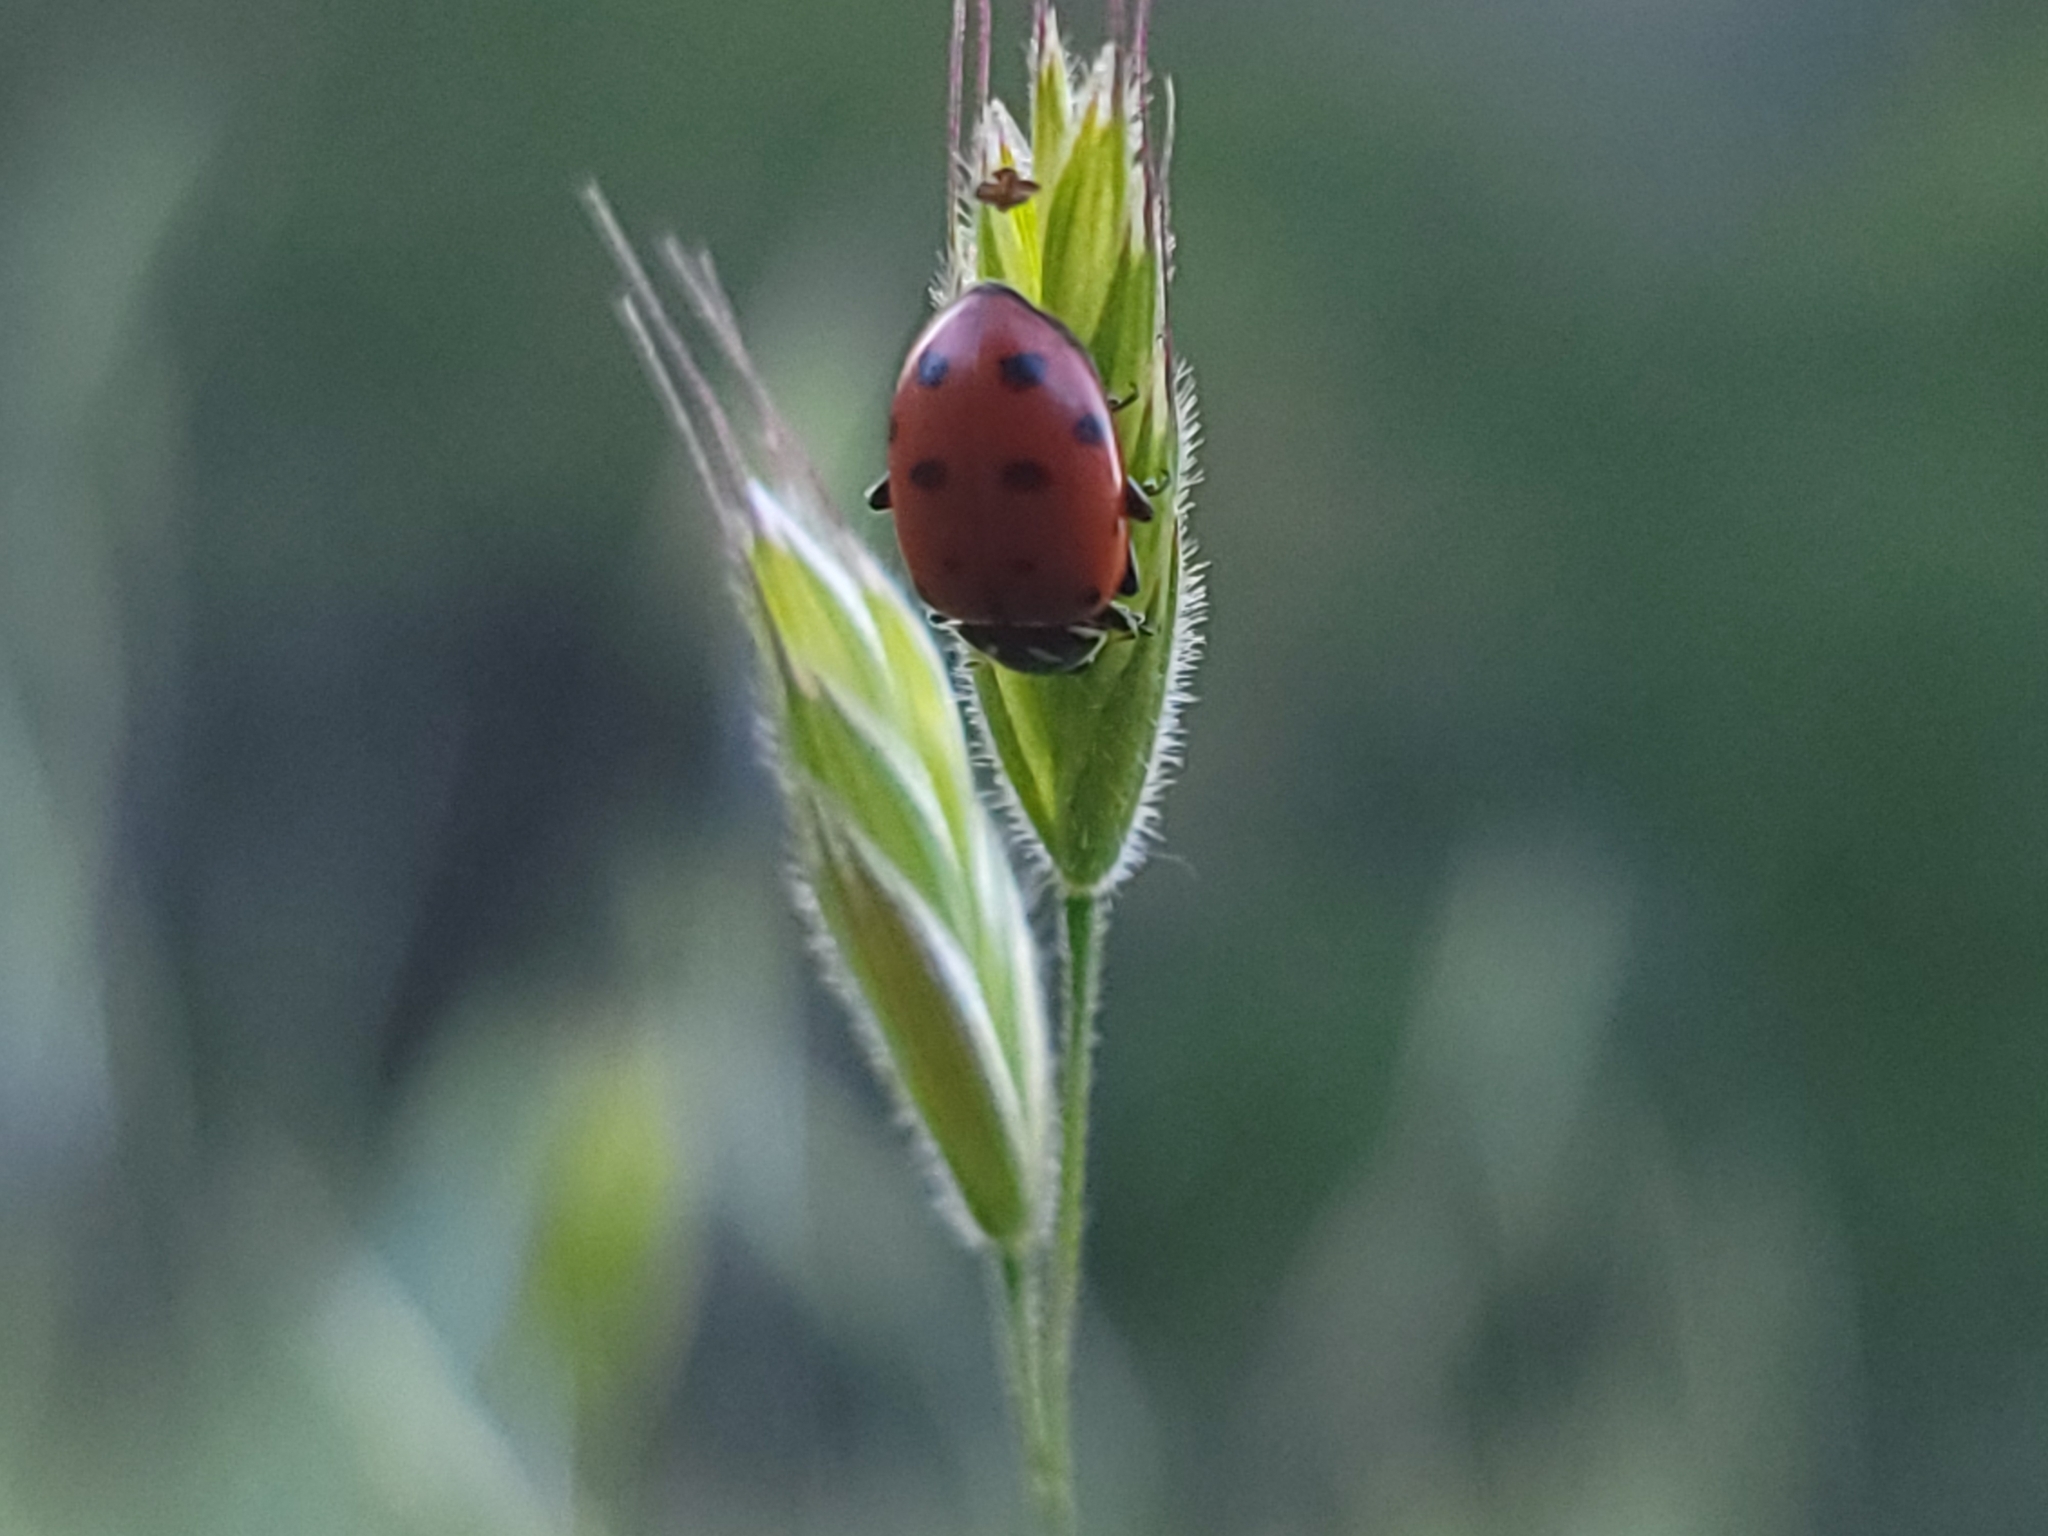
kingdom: Animalia
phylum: Arthropoda
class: Insecta
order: Coleoptera
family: Coccinellidae
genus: Hippodamia
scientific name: Hippodamia convergens
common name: Convergent lady beetle
